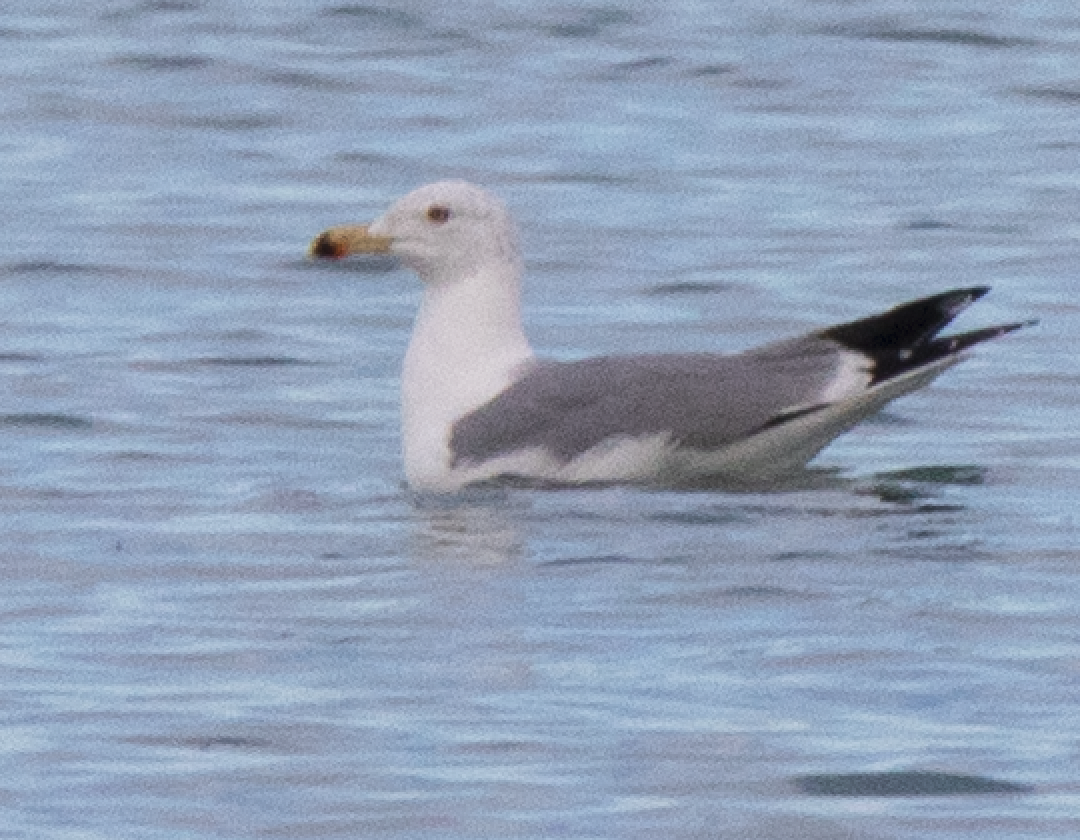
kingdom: Animalia
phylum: Chordata
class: Aves
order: Charadriiformes
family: Laridae
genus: Larus
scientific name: Larus michahellis
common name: Yellow-legged gull
